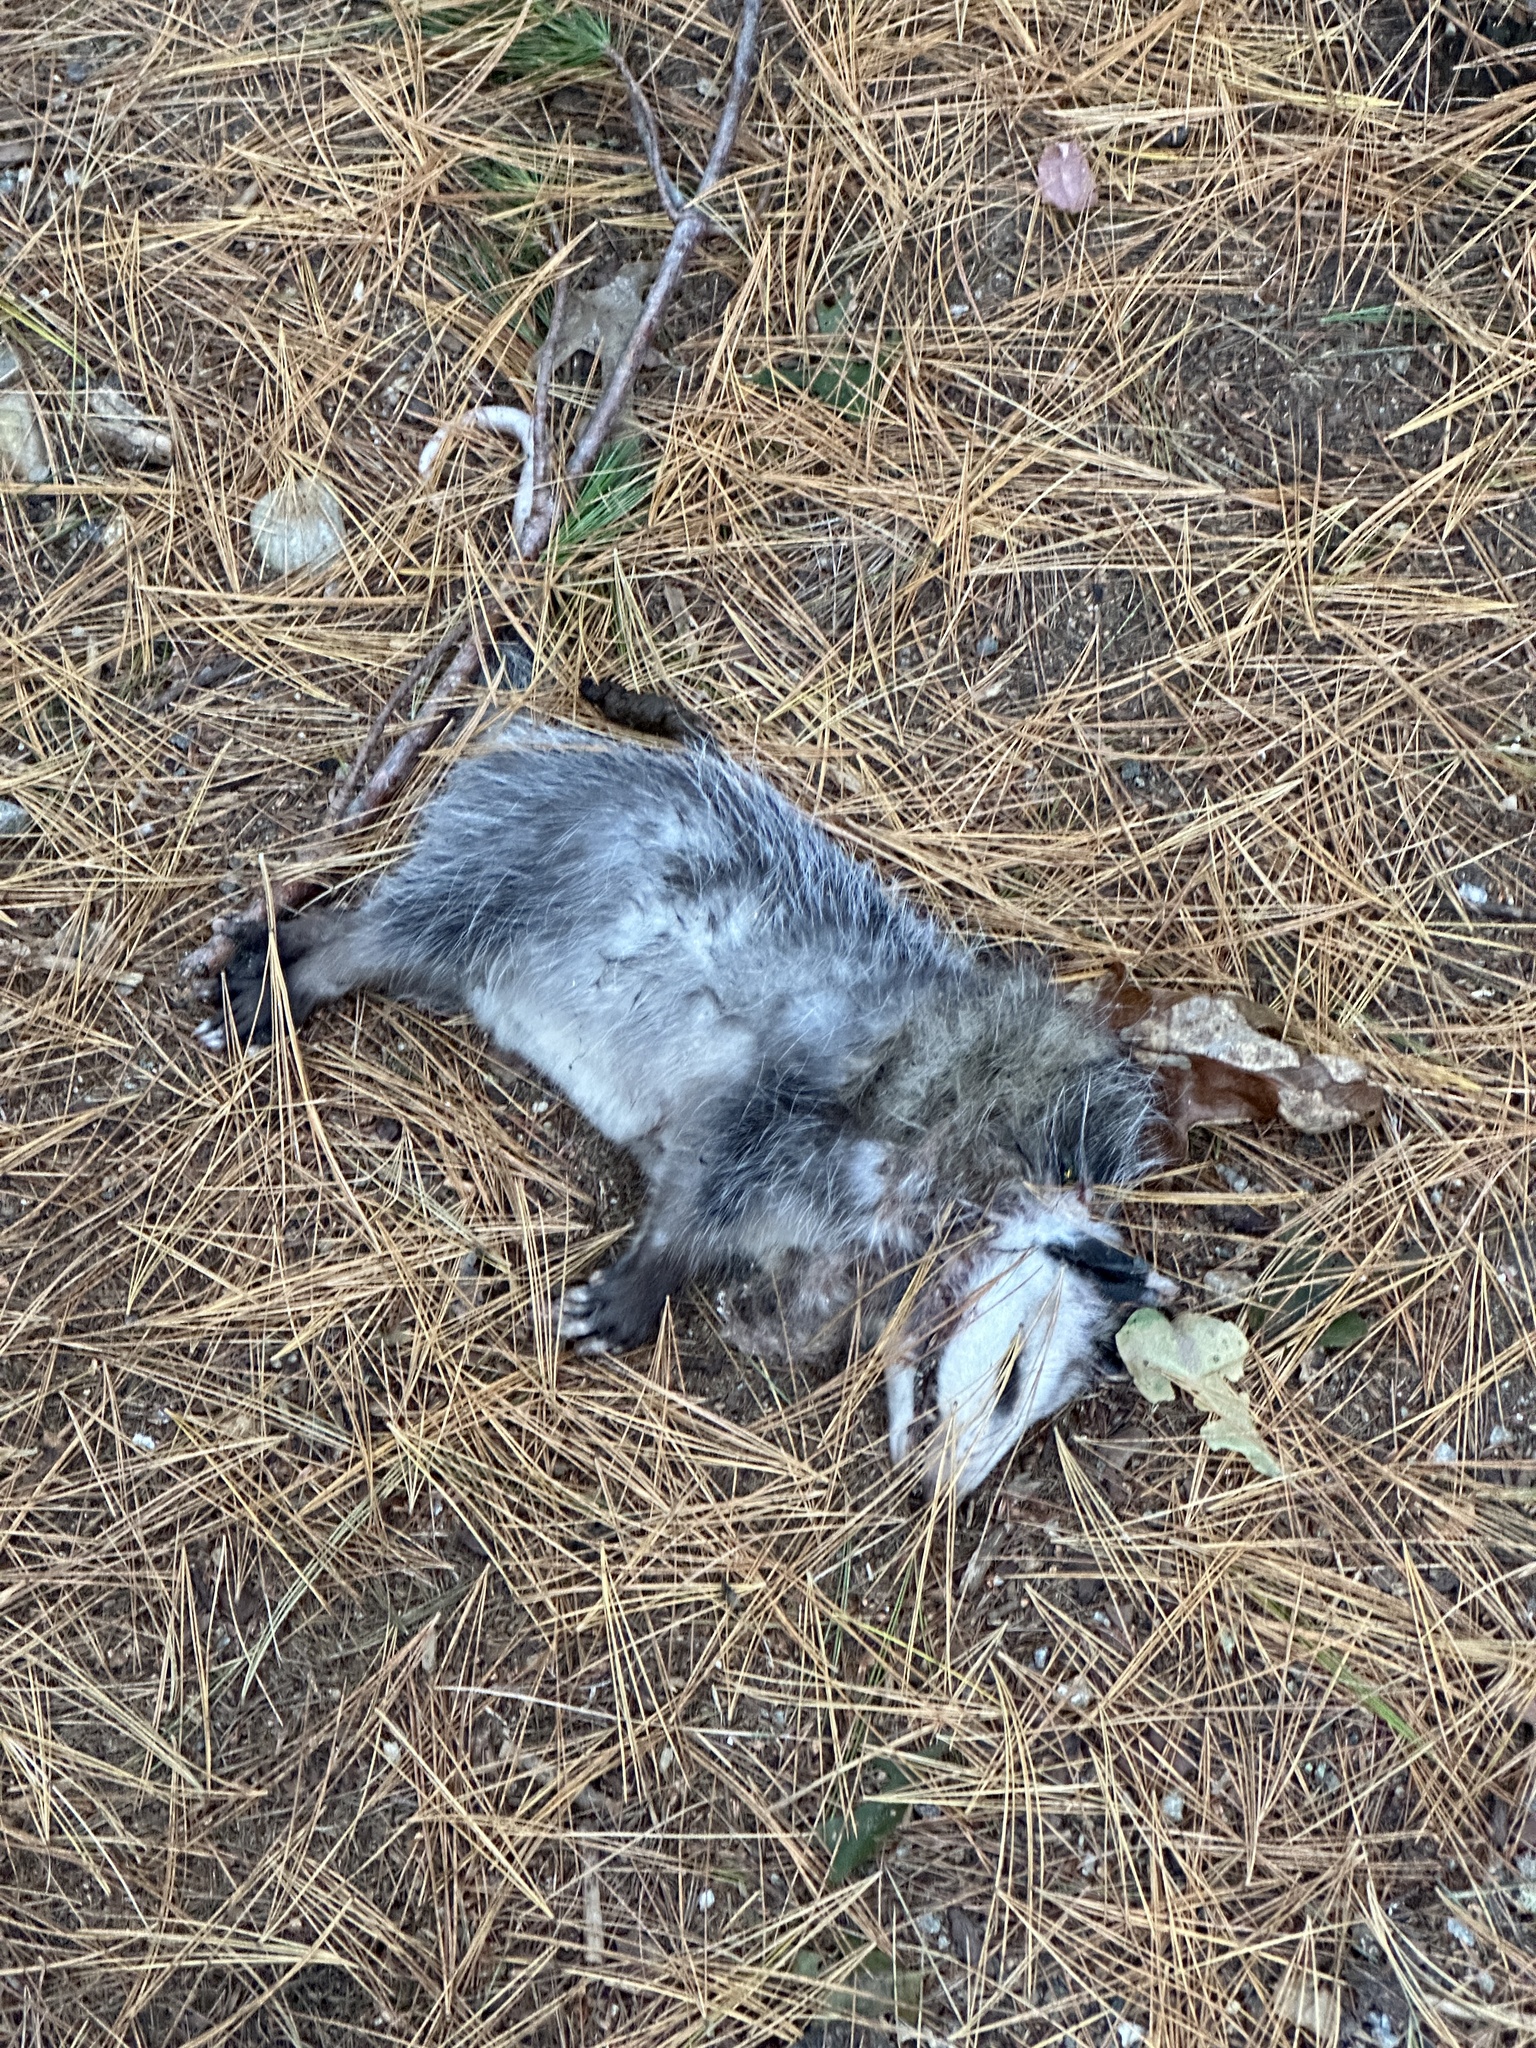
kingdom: Animalia
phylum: Chordata
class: Mammalia
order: Didelphimorphia
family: Didelphidae
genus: Didelphis
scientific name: Didelphis virginiana
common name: Virginia opossum
